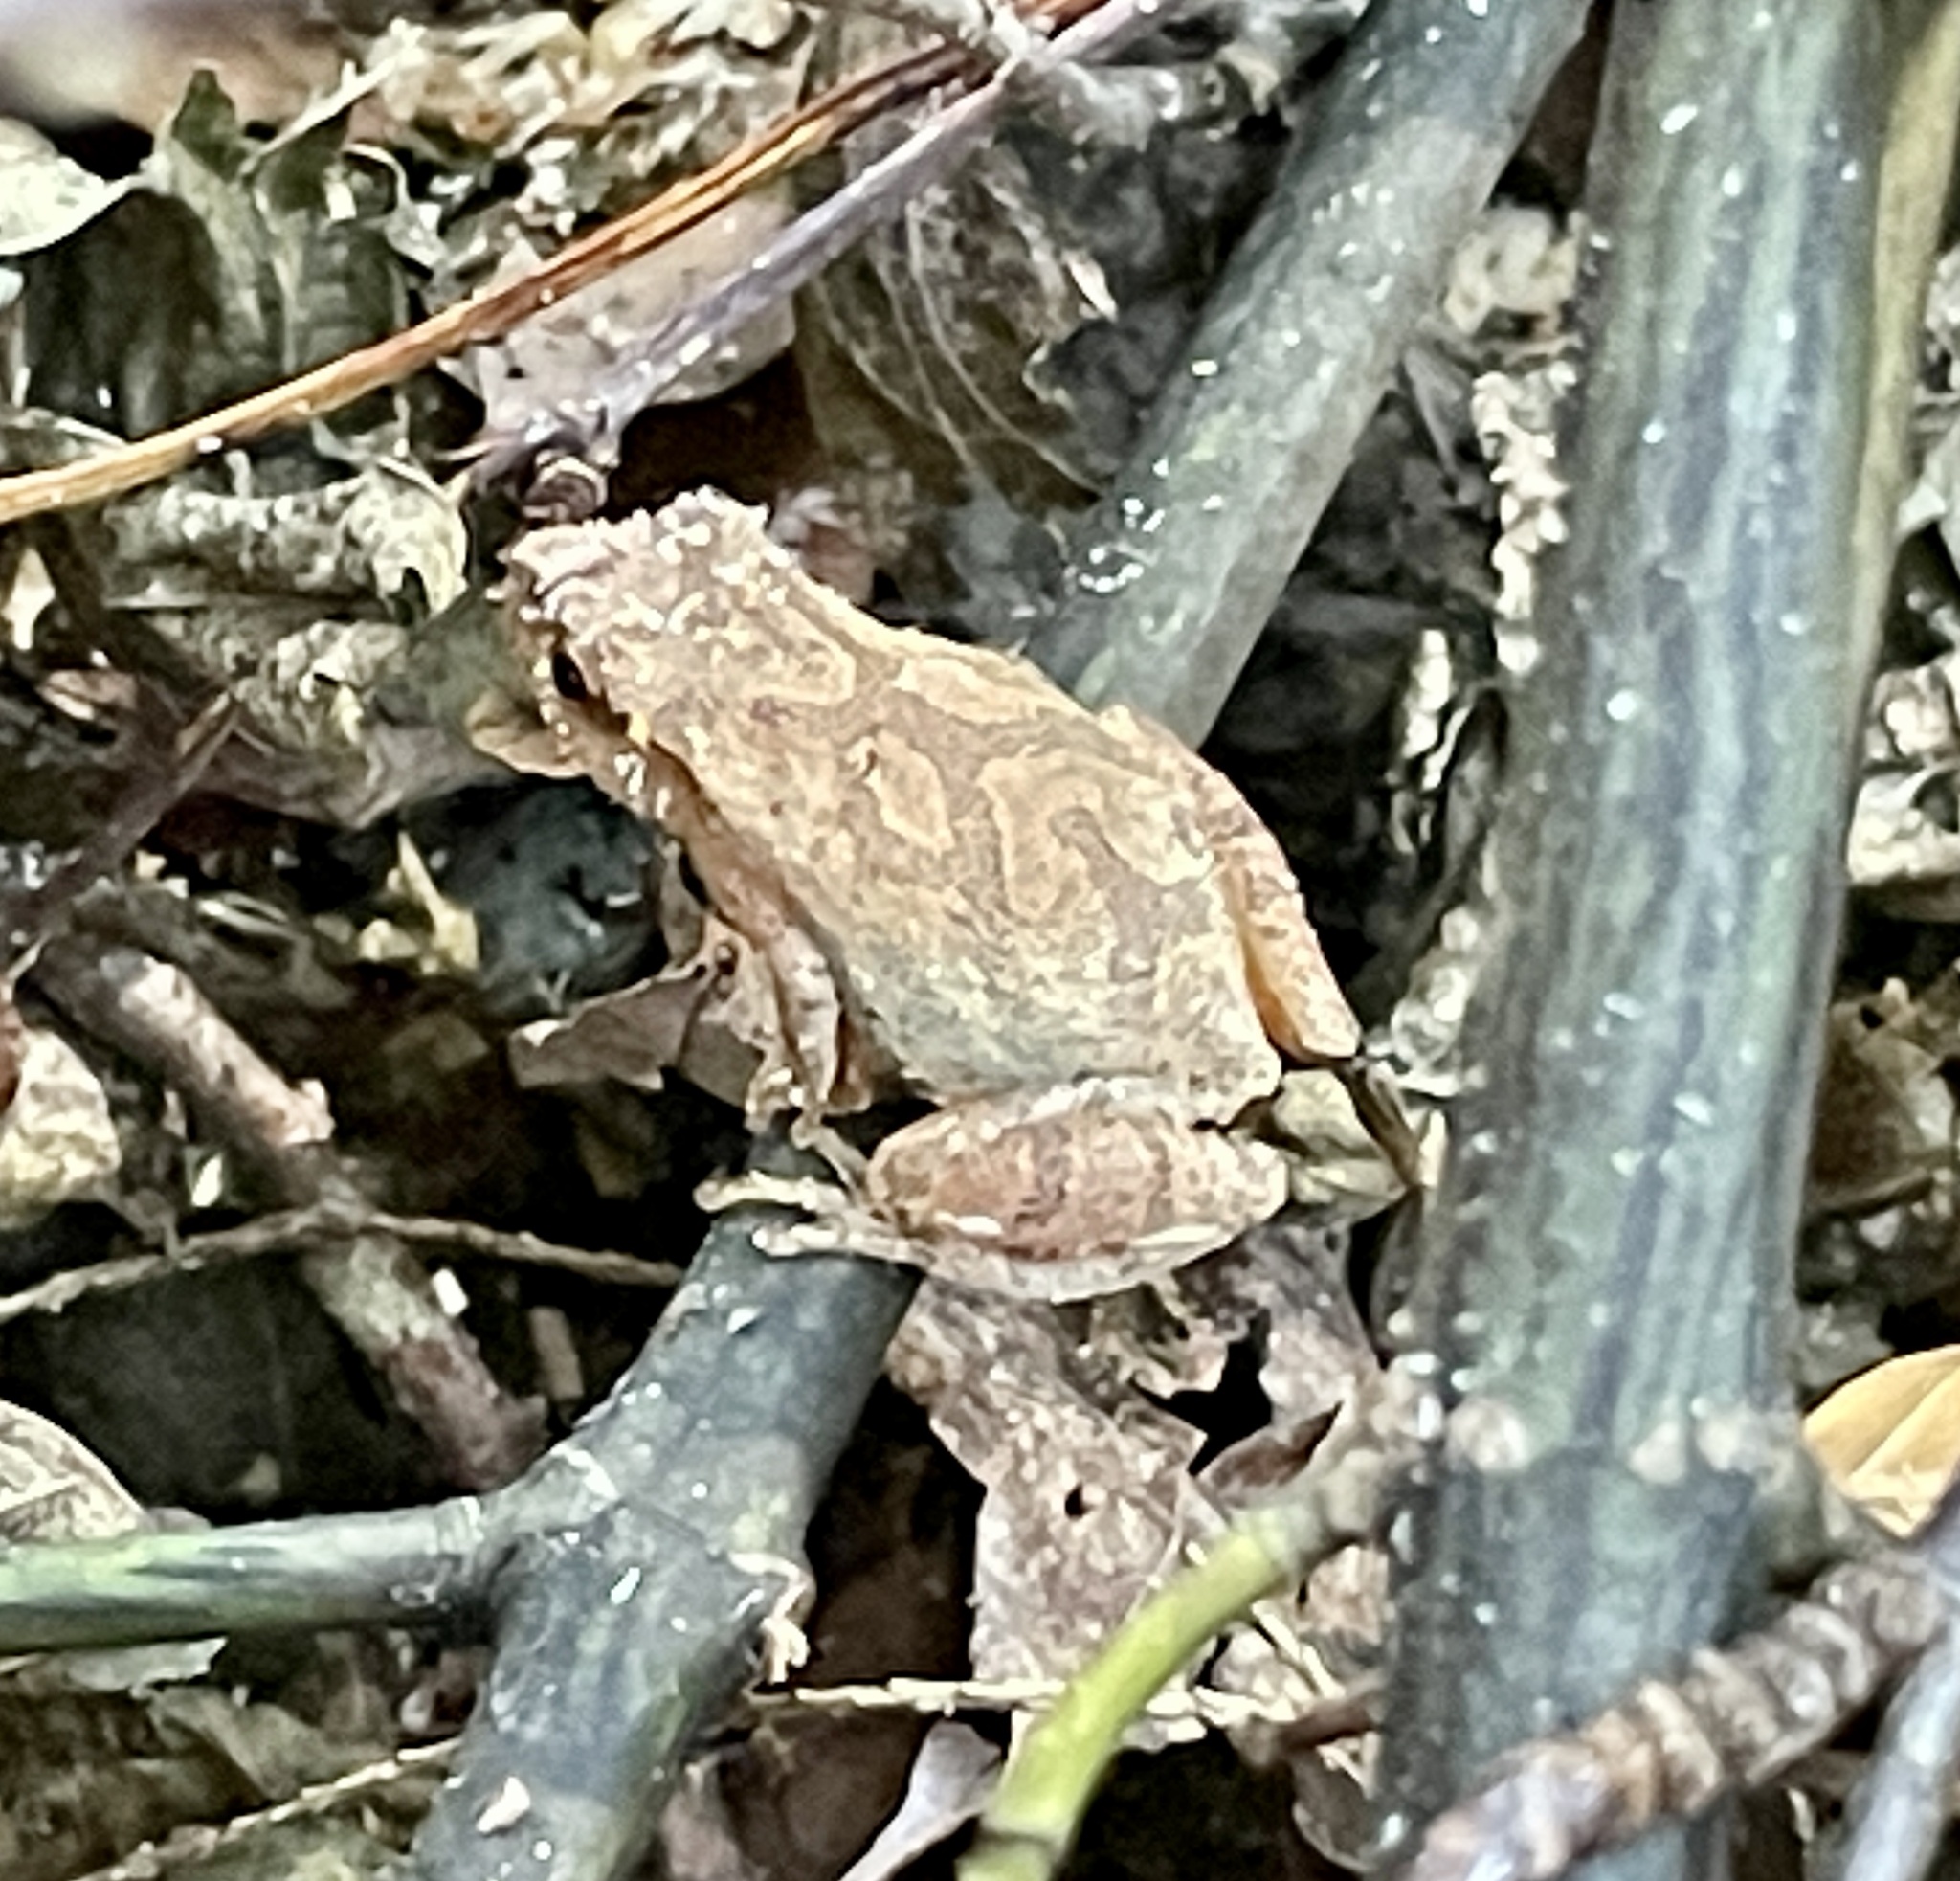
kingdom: Animalia
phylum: Chordata
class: Amphibia
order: Anura
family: Hylidae
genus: Pseudacris
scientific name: Pseudacris crucifer
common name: Spring peeper
